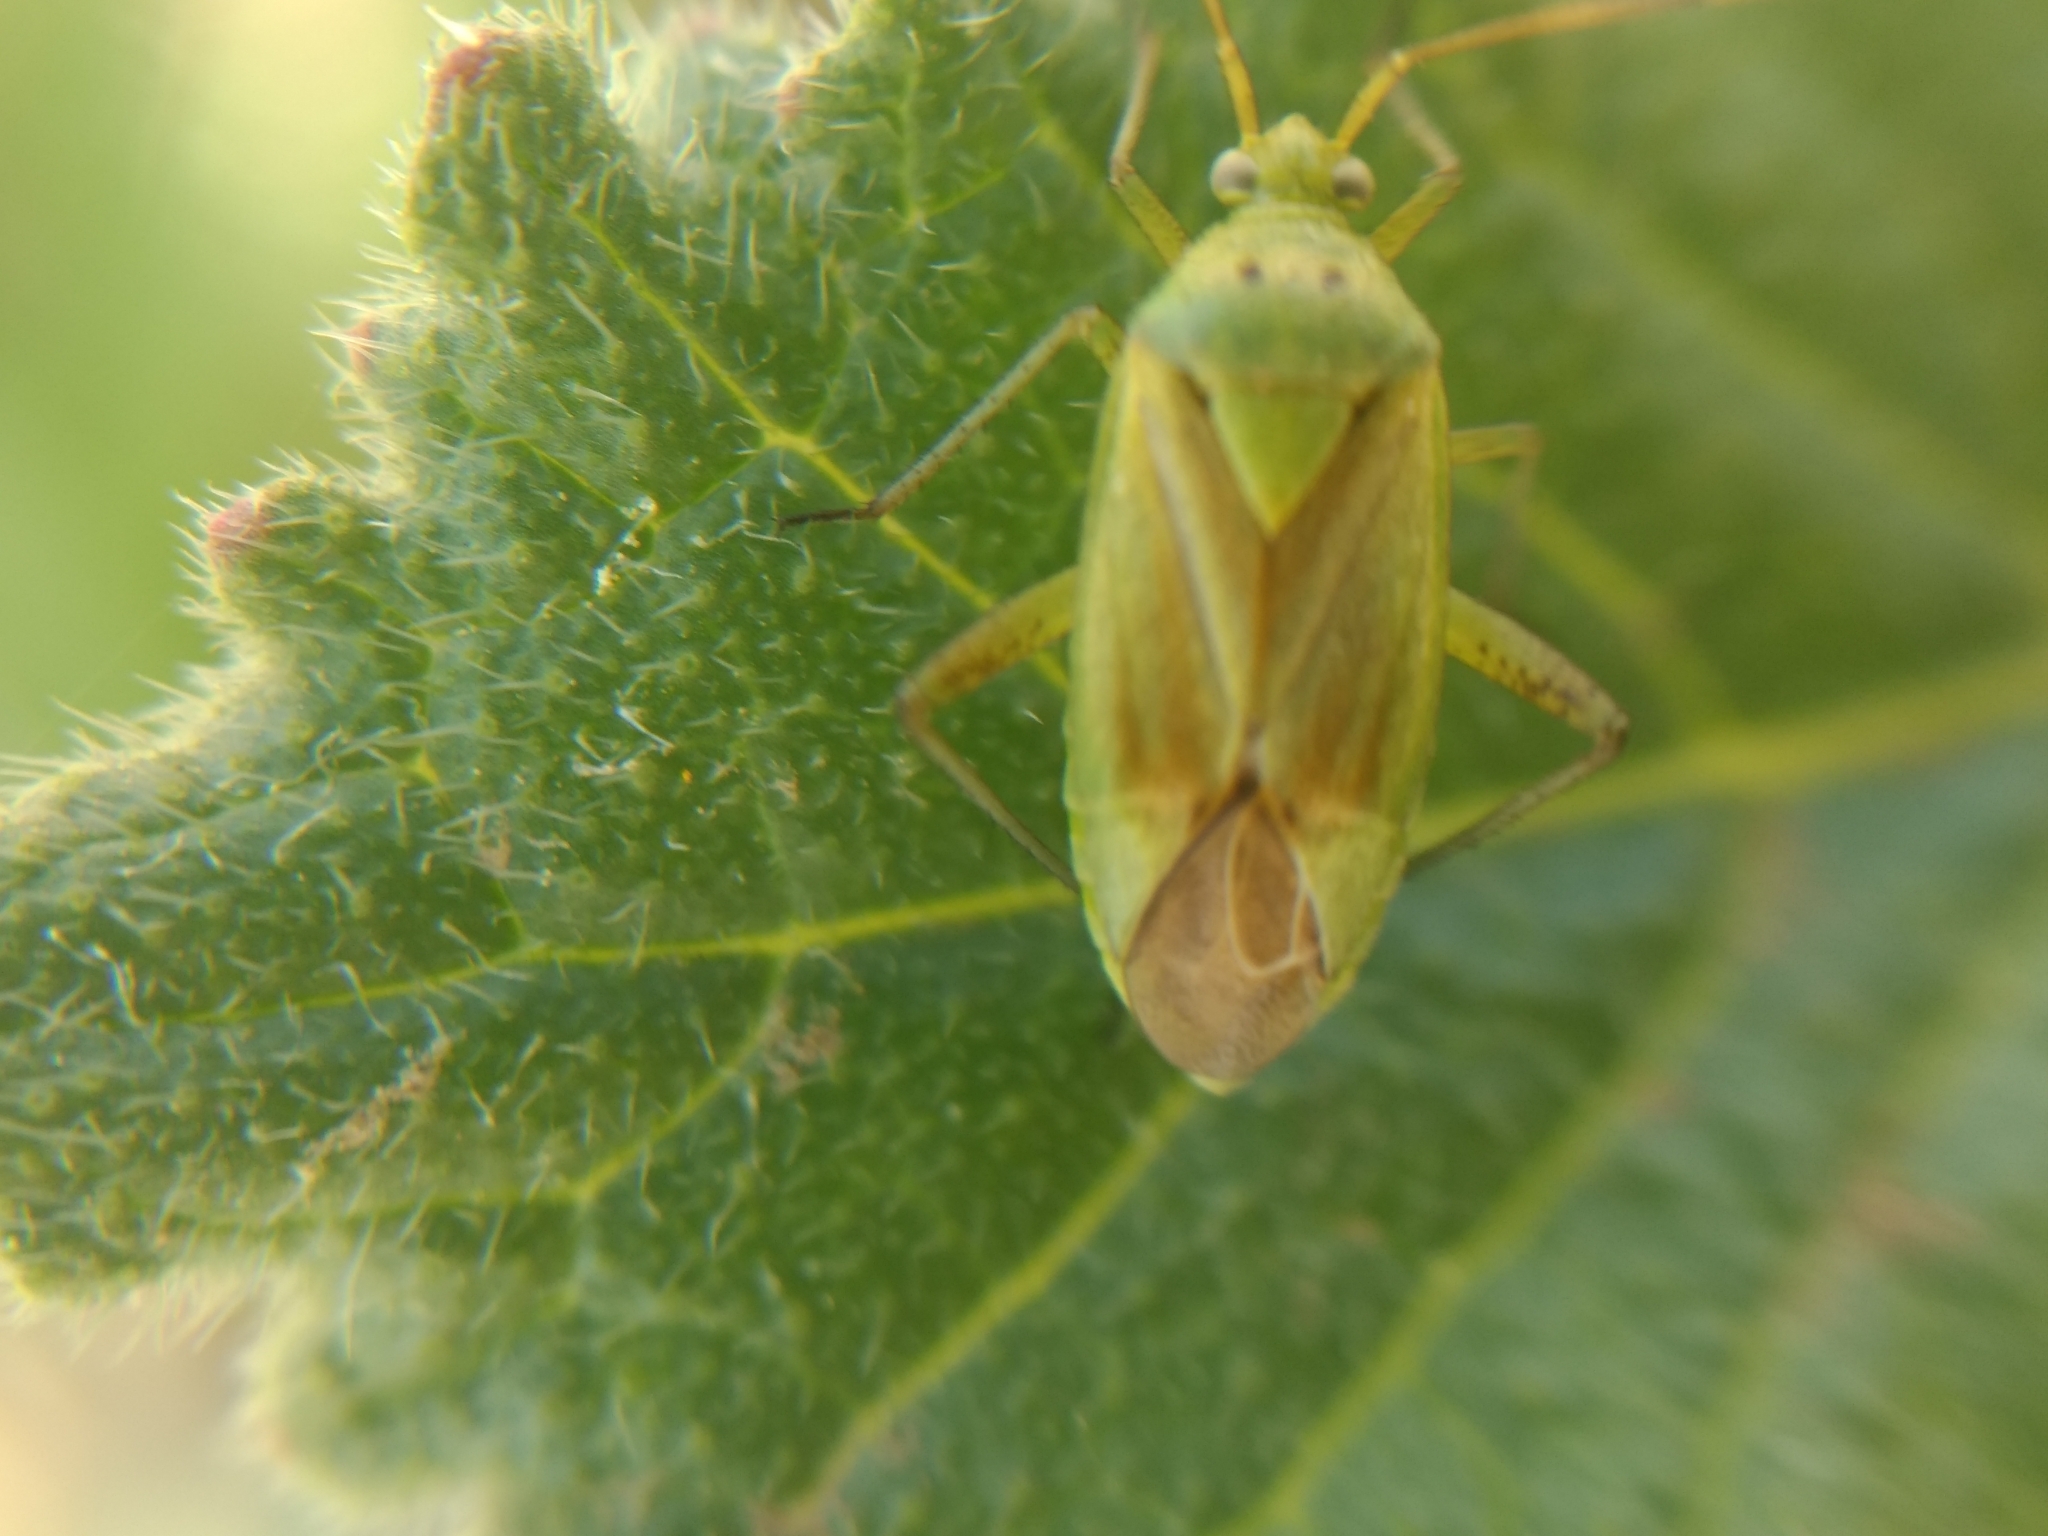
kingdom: Animalia
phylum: Arthropoda
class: Insecta
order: Hemiptera
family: Miridae
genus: Closterotomus
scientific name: Closterotomus norvegicus
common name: Plant bug
